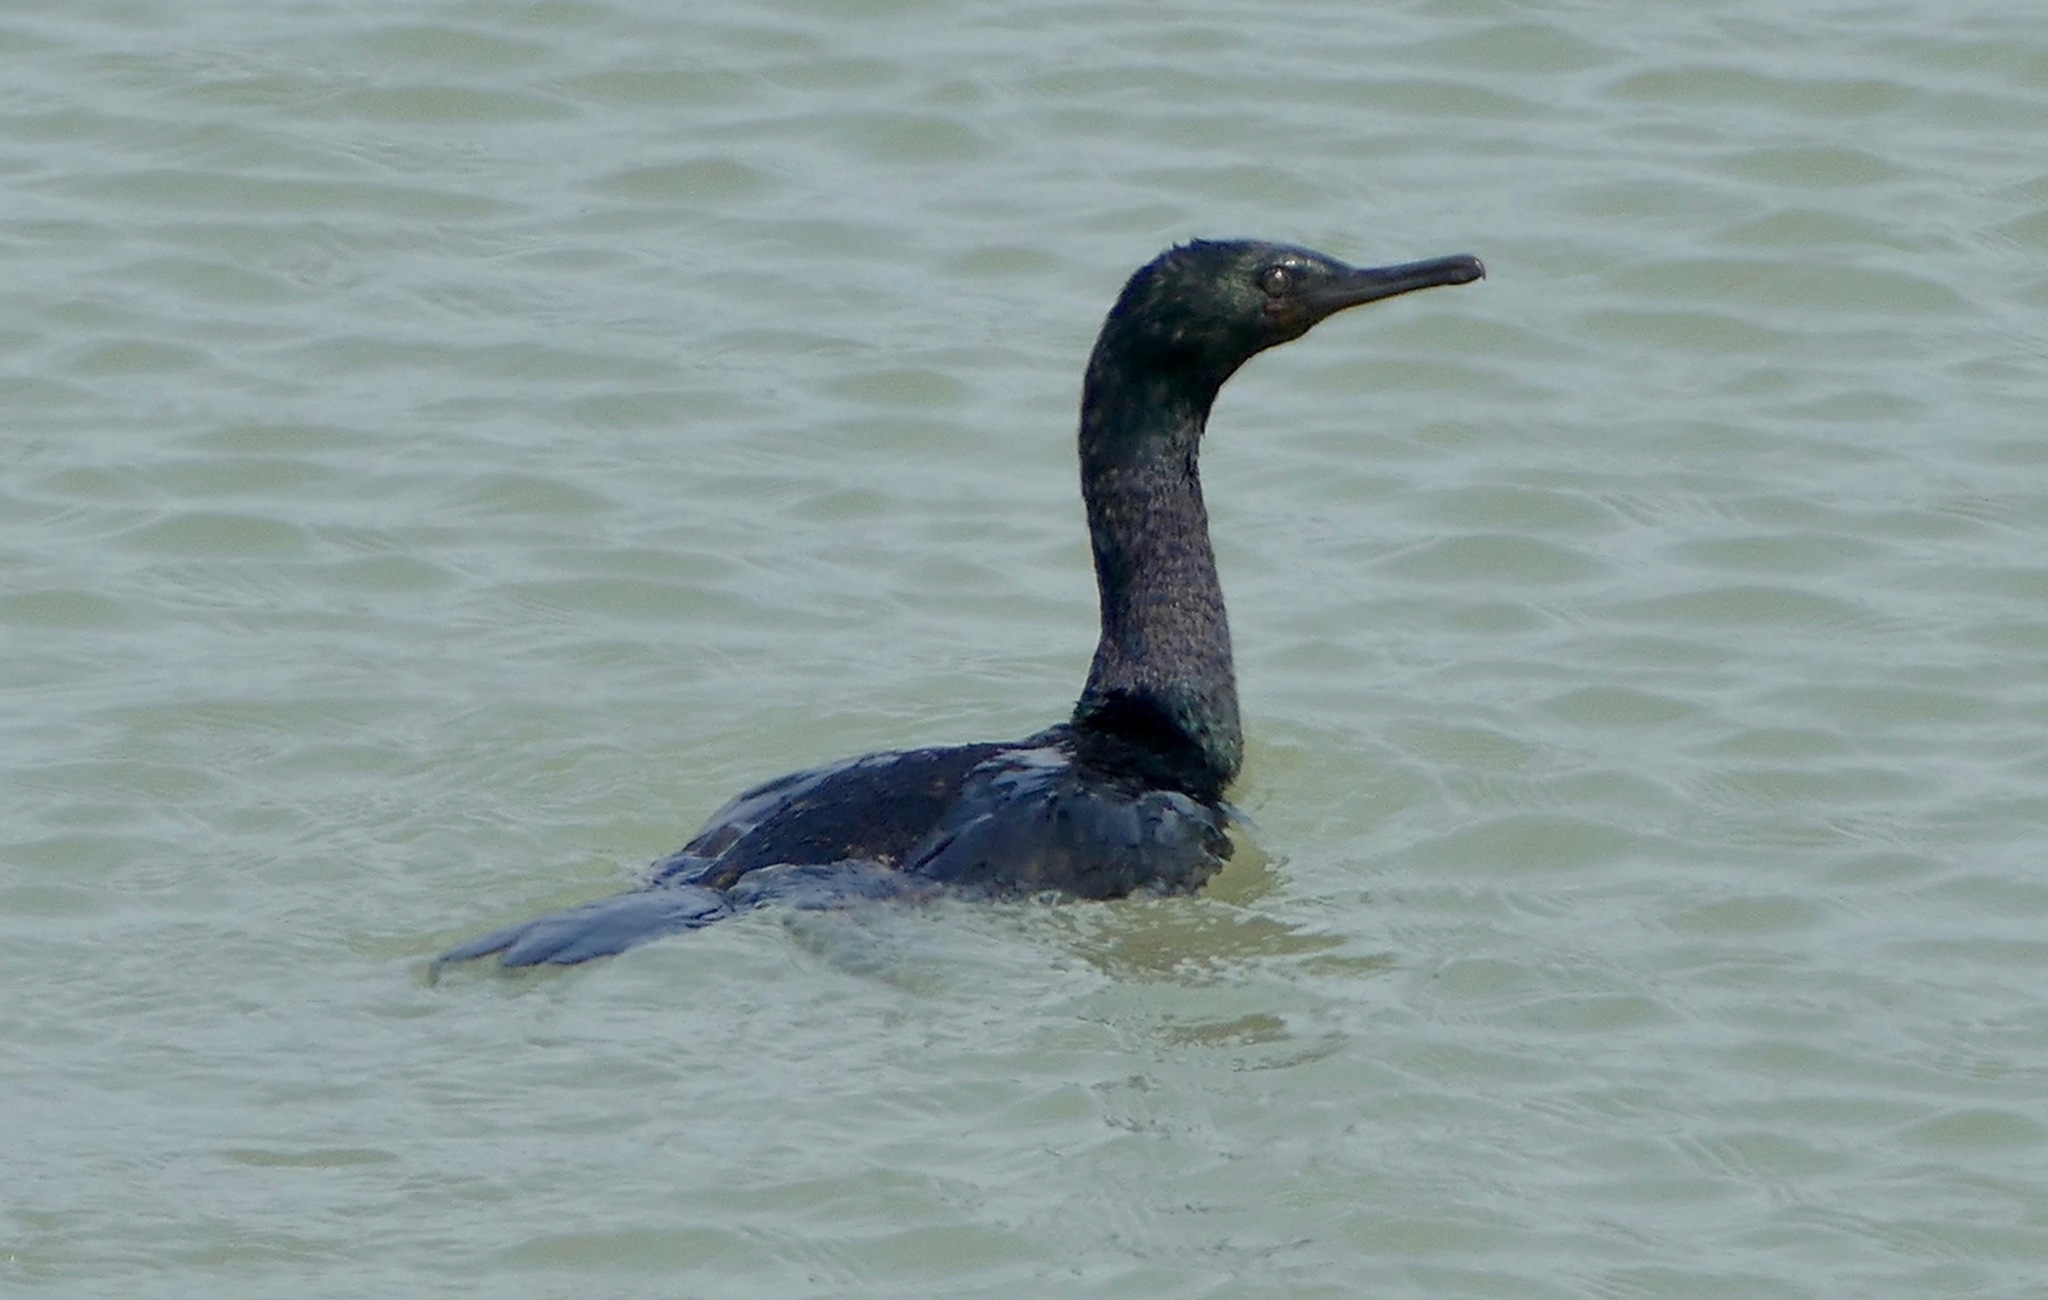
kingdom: Animalia
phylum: Chordata
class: Aves
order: Suliformes
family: Phalacrocoracidae
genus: Phalacrocorax
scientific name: Phalacrocorax pelagicus
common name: Pelagic cormorant
